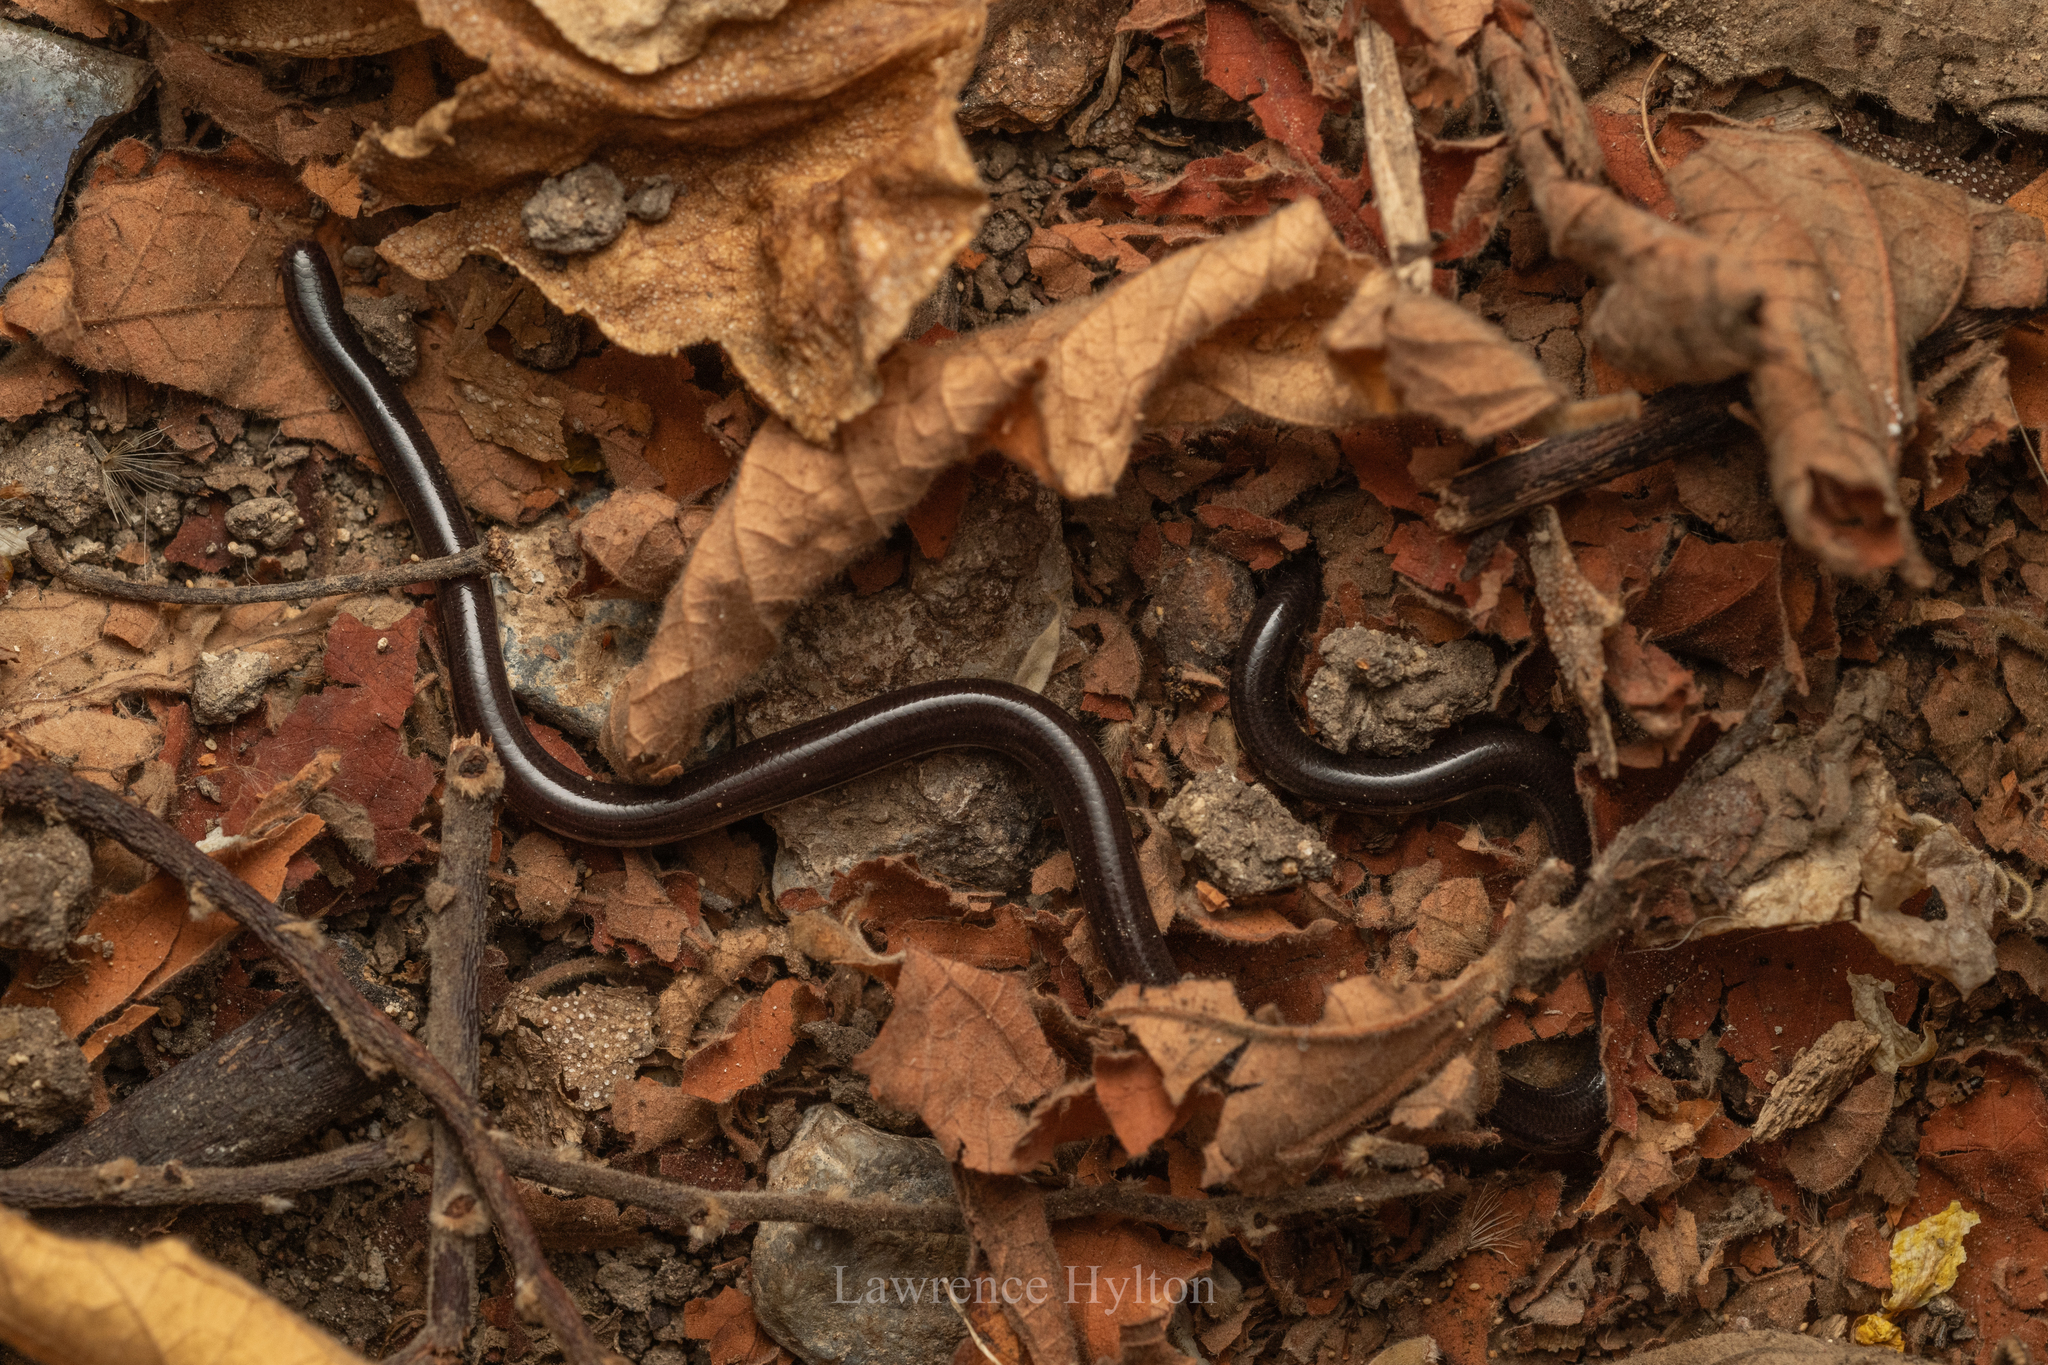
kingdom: Animalia
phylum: Chordata
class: Squamata
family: Typhlopidae
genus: Indotyphlops
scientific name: Indotyphlops braminus
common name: Brahminy blindsnake
